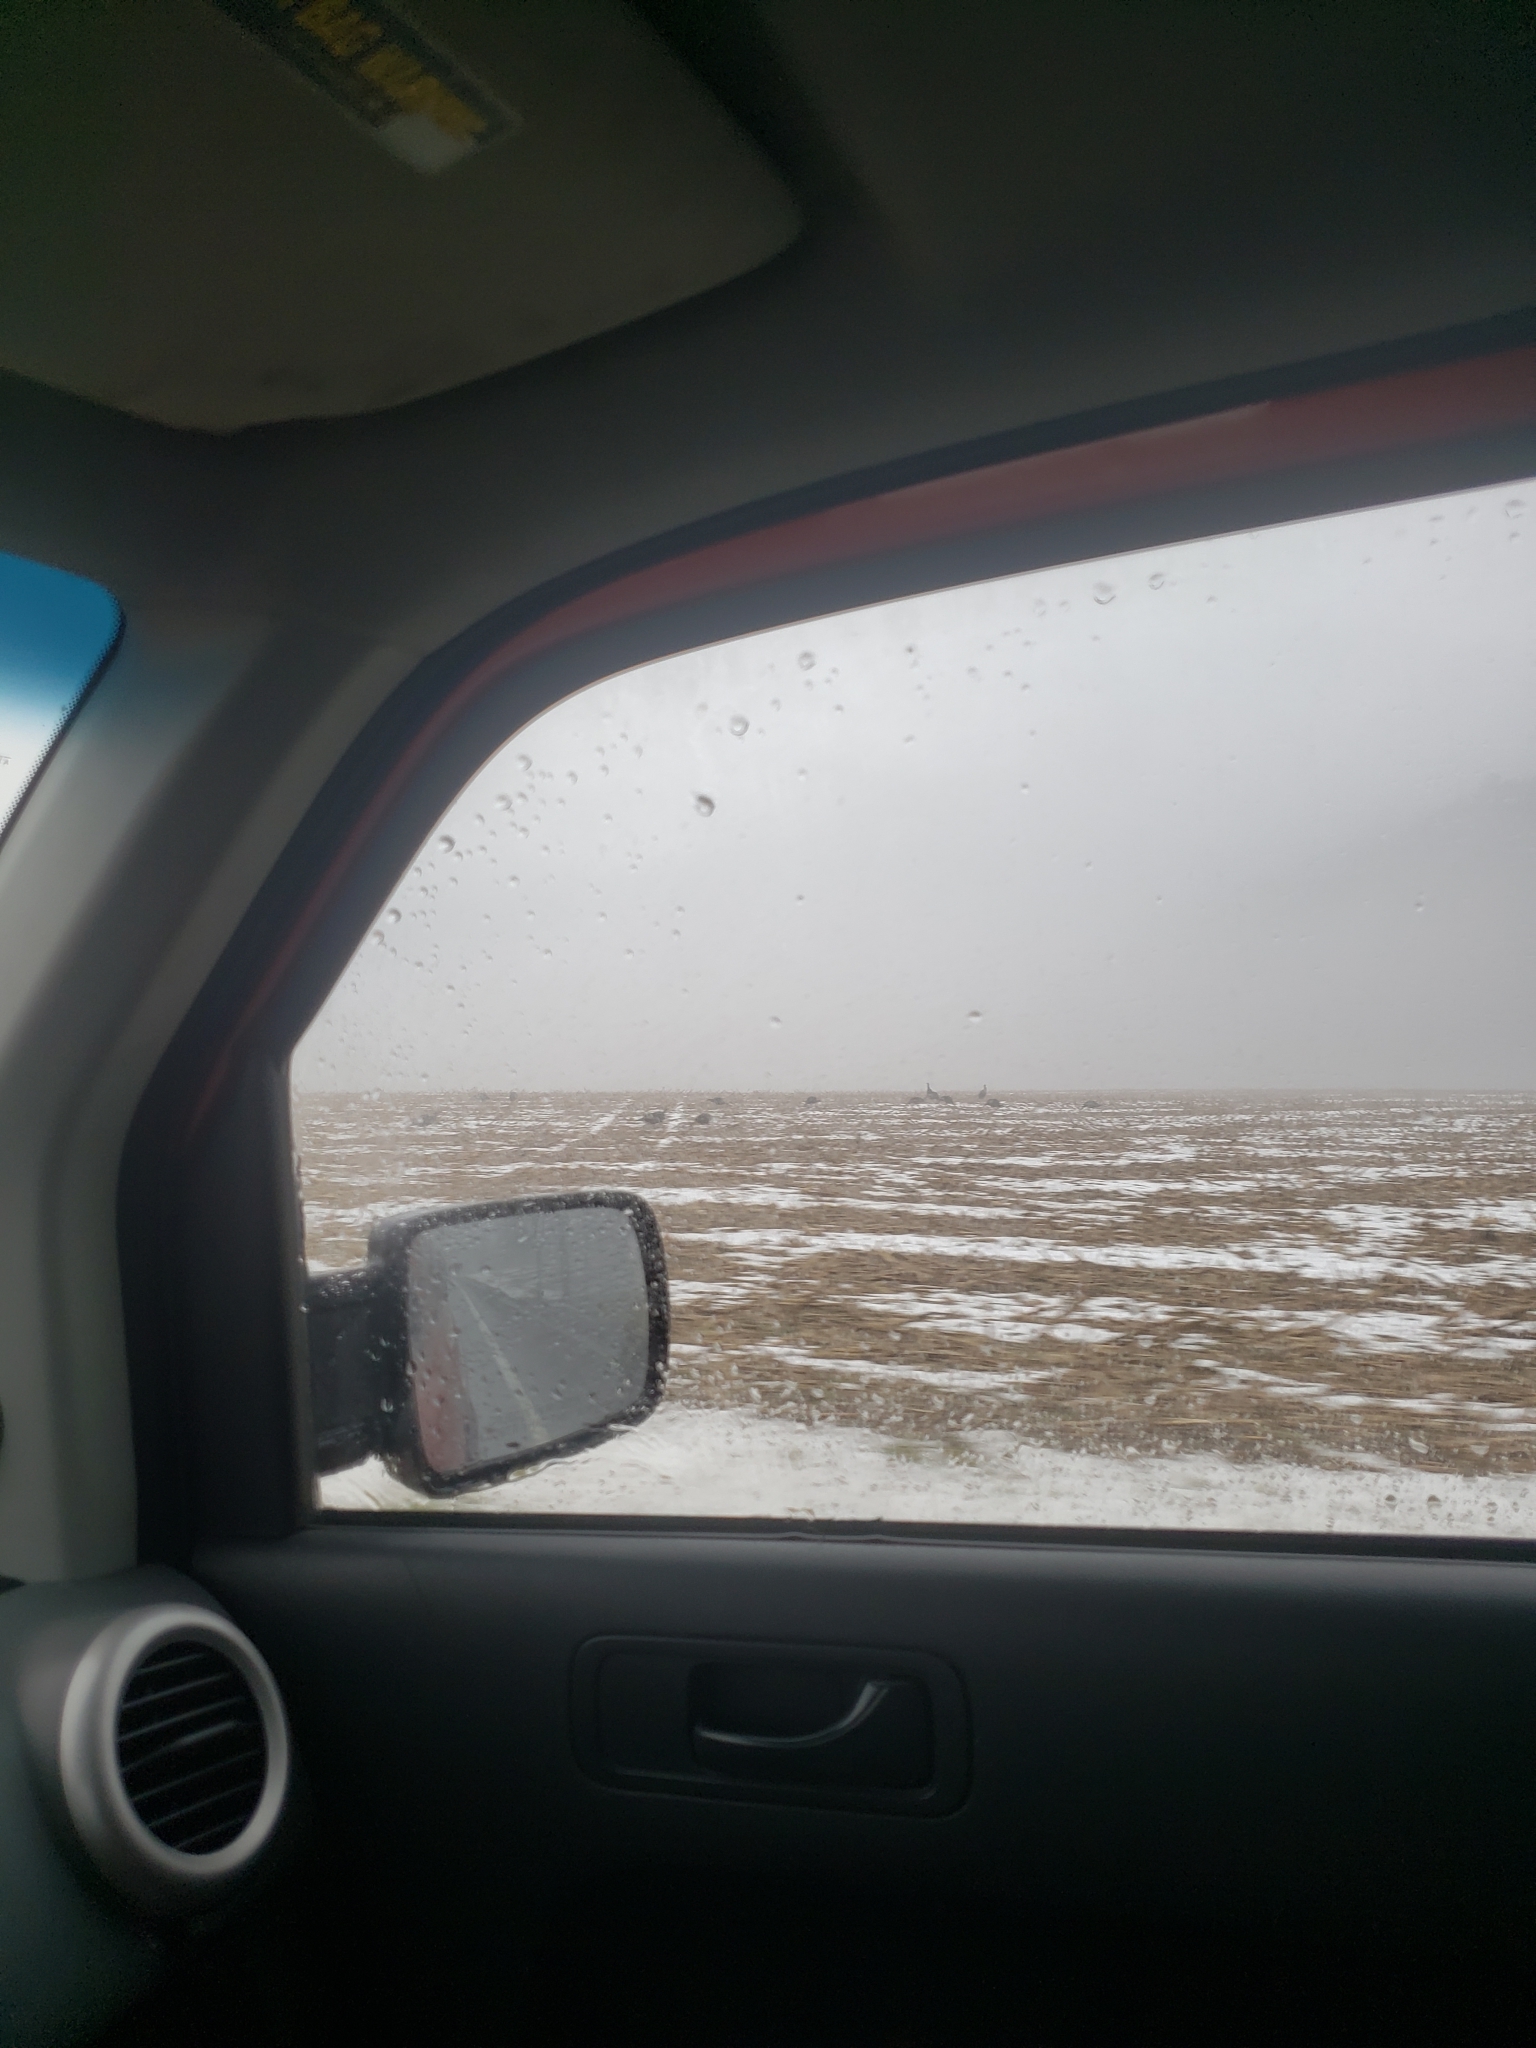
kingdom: Animalia
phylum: Chordata
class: Aves
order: Galliformes
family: Phasianidae
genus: Meleagris
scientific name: Meleagris gallopavo
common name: Wild turkey
